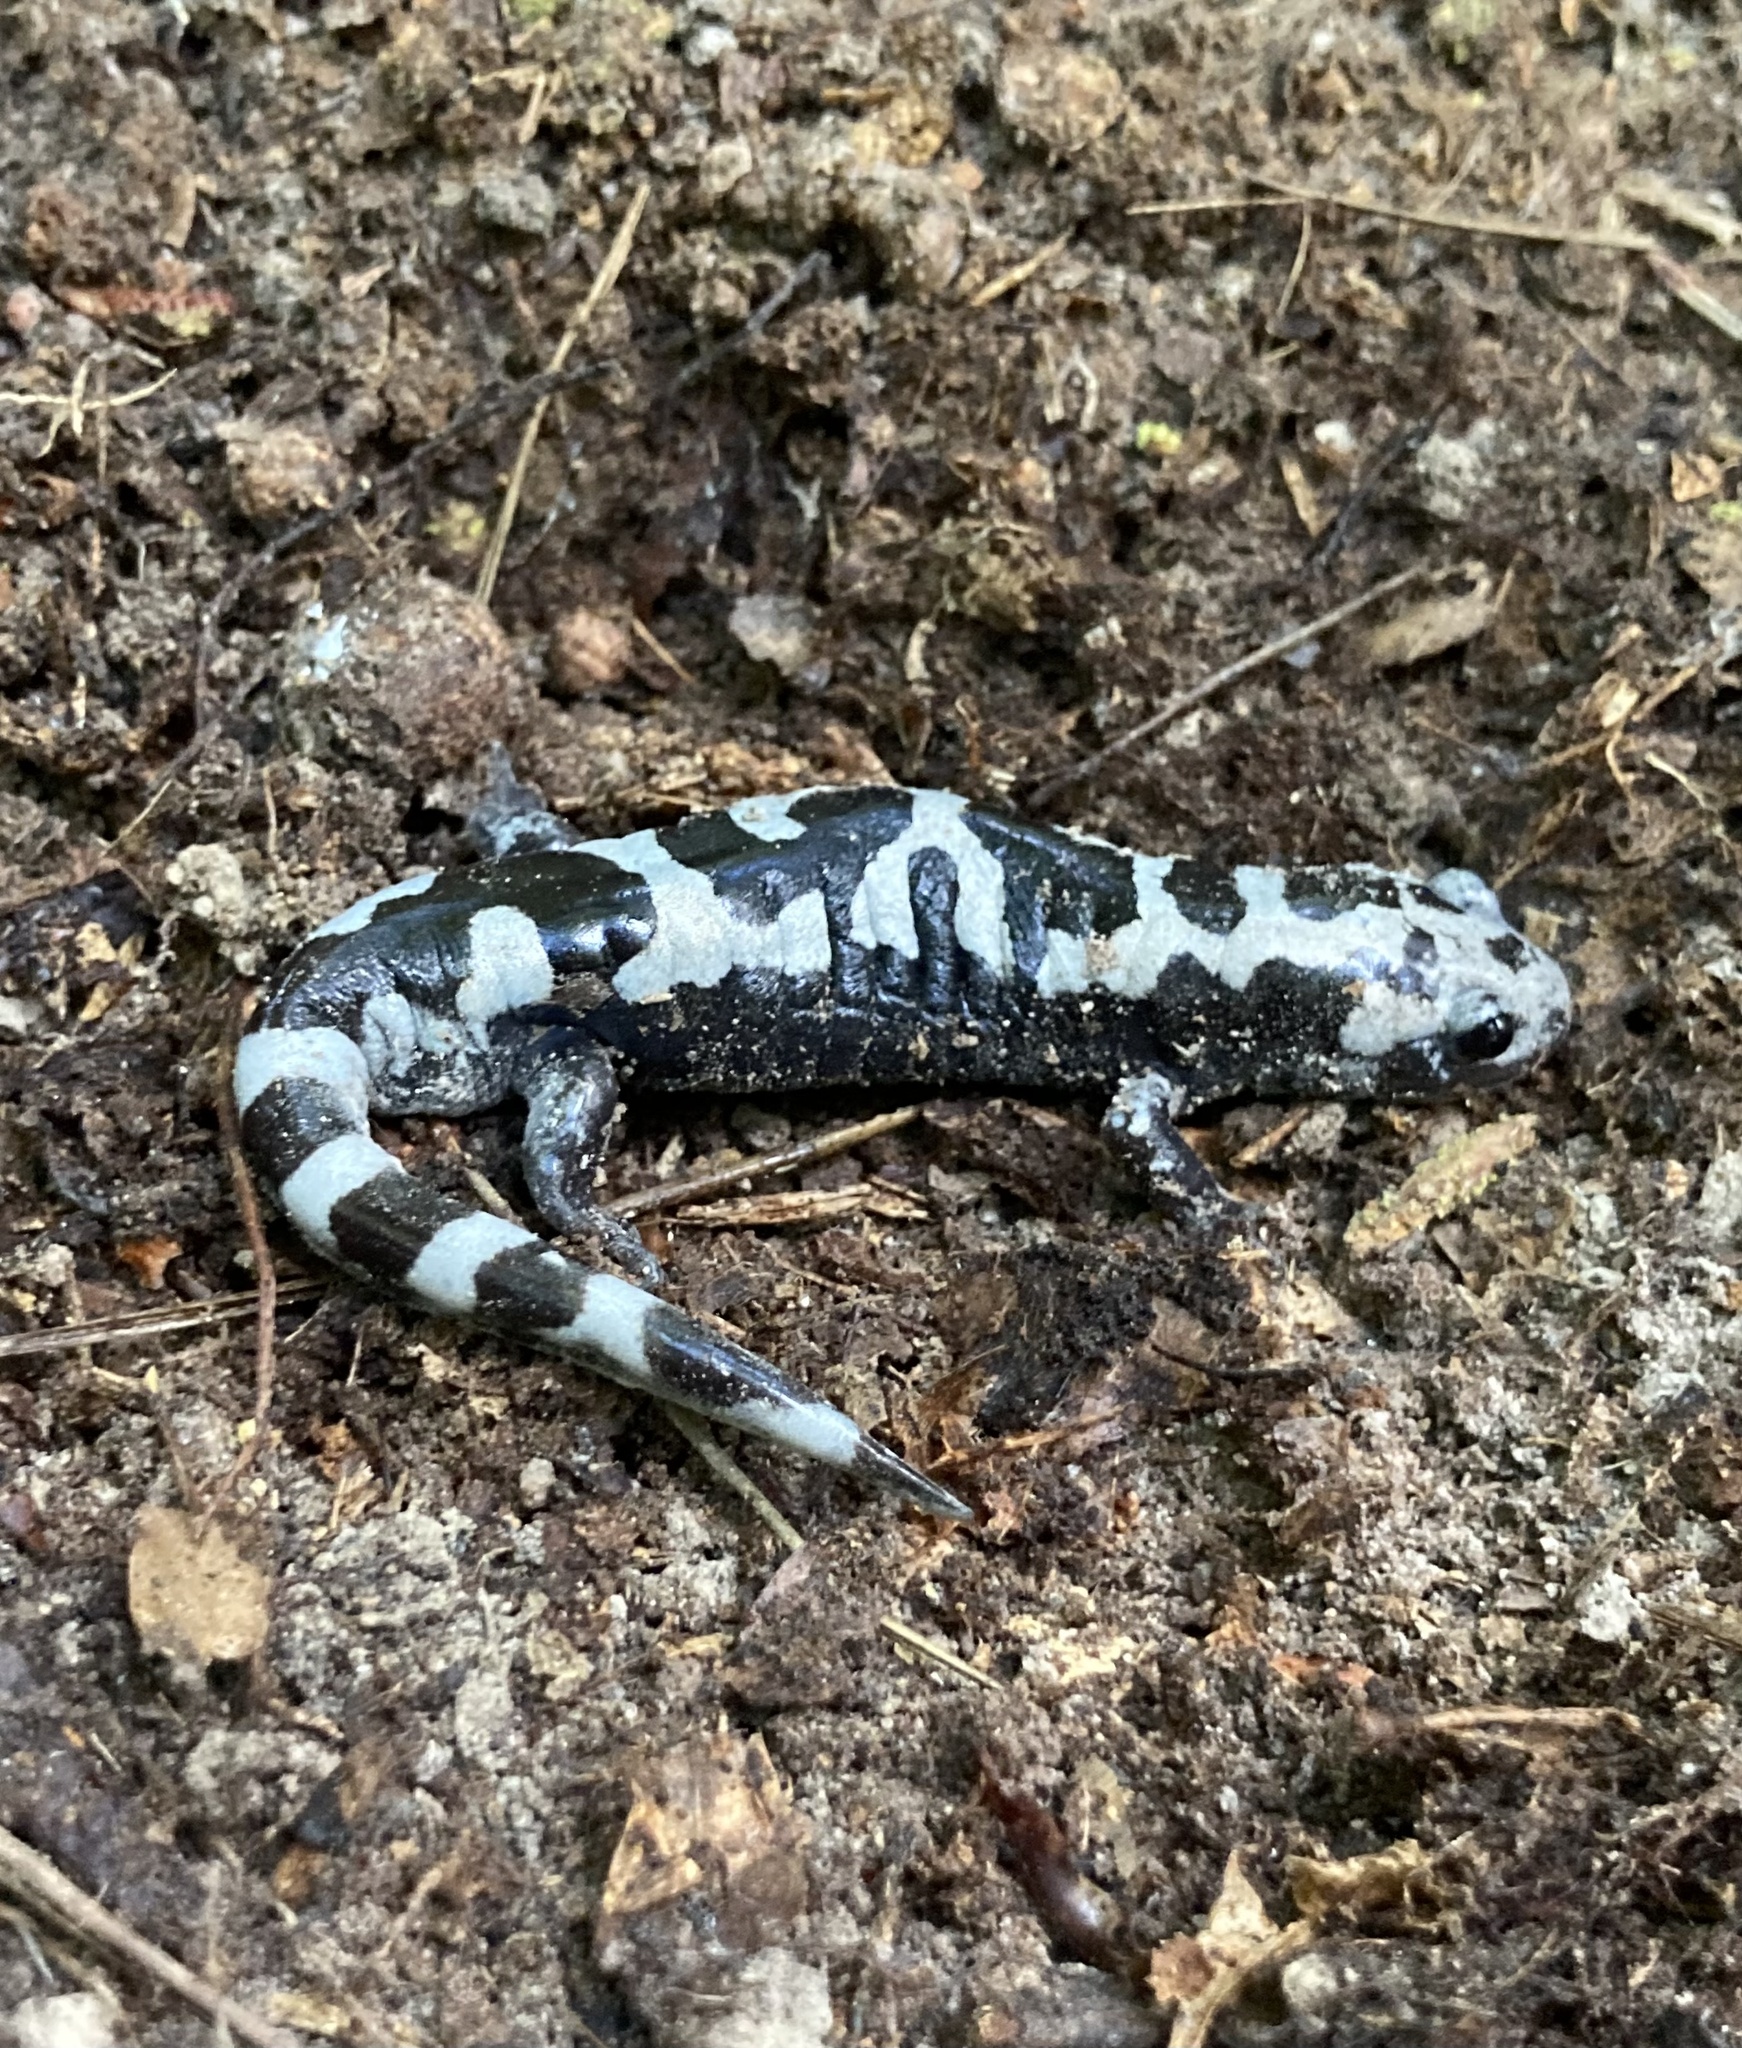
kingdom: Animalia
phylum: Chordata
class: Amphibia
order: Caudata
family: Ambystomatidae
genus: Ambystoma
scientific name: Ambystoma opacum
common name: Marbled salamander
